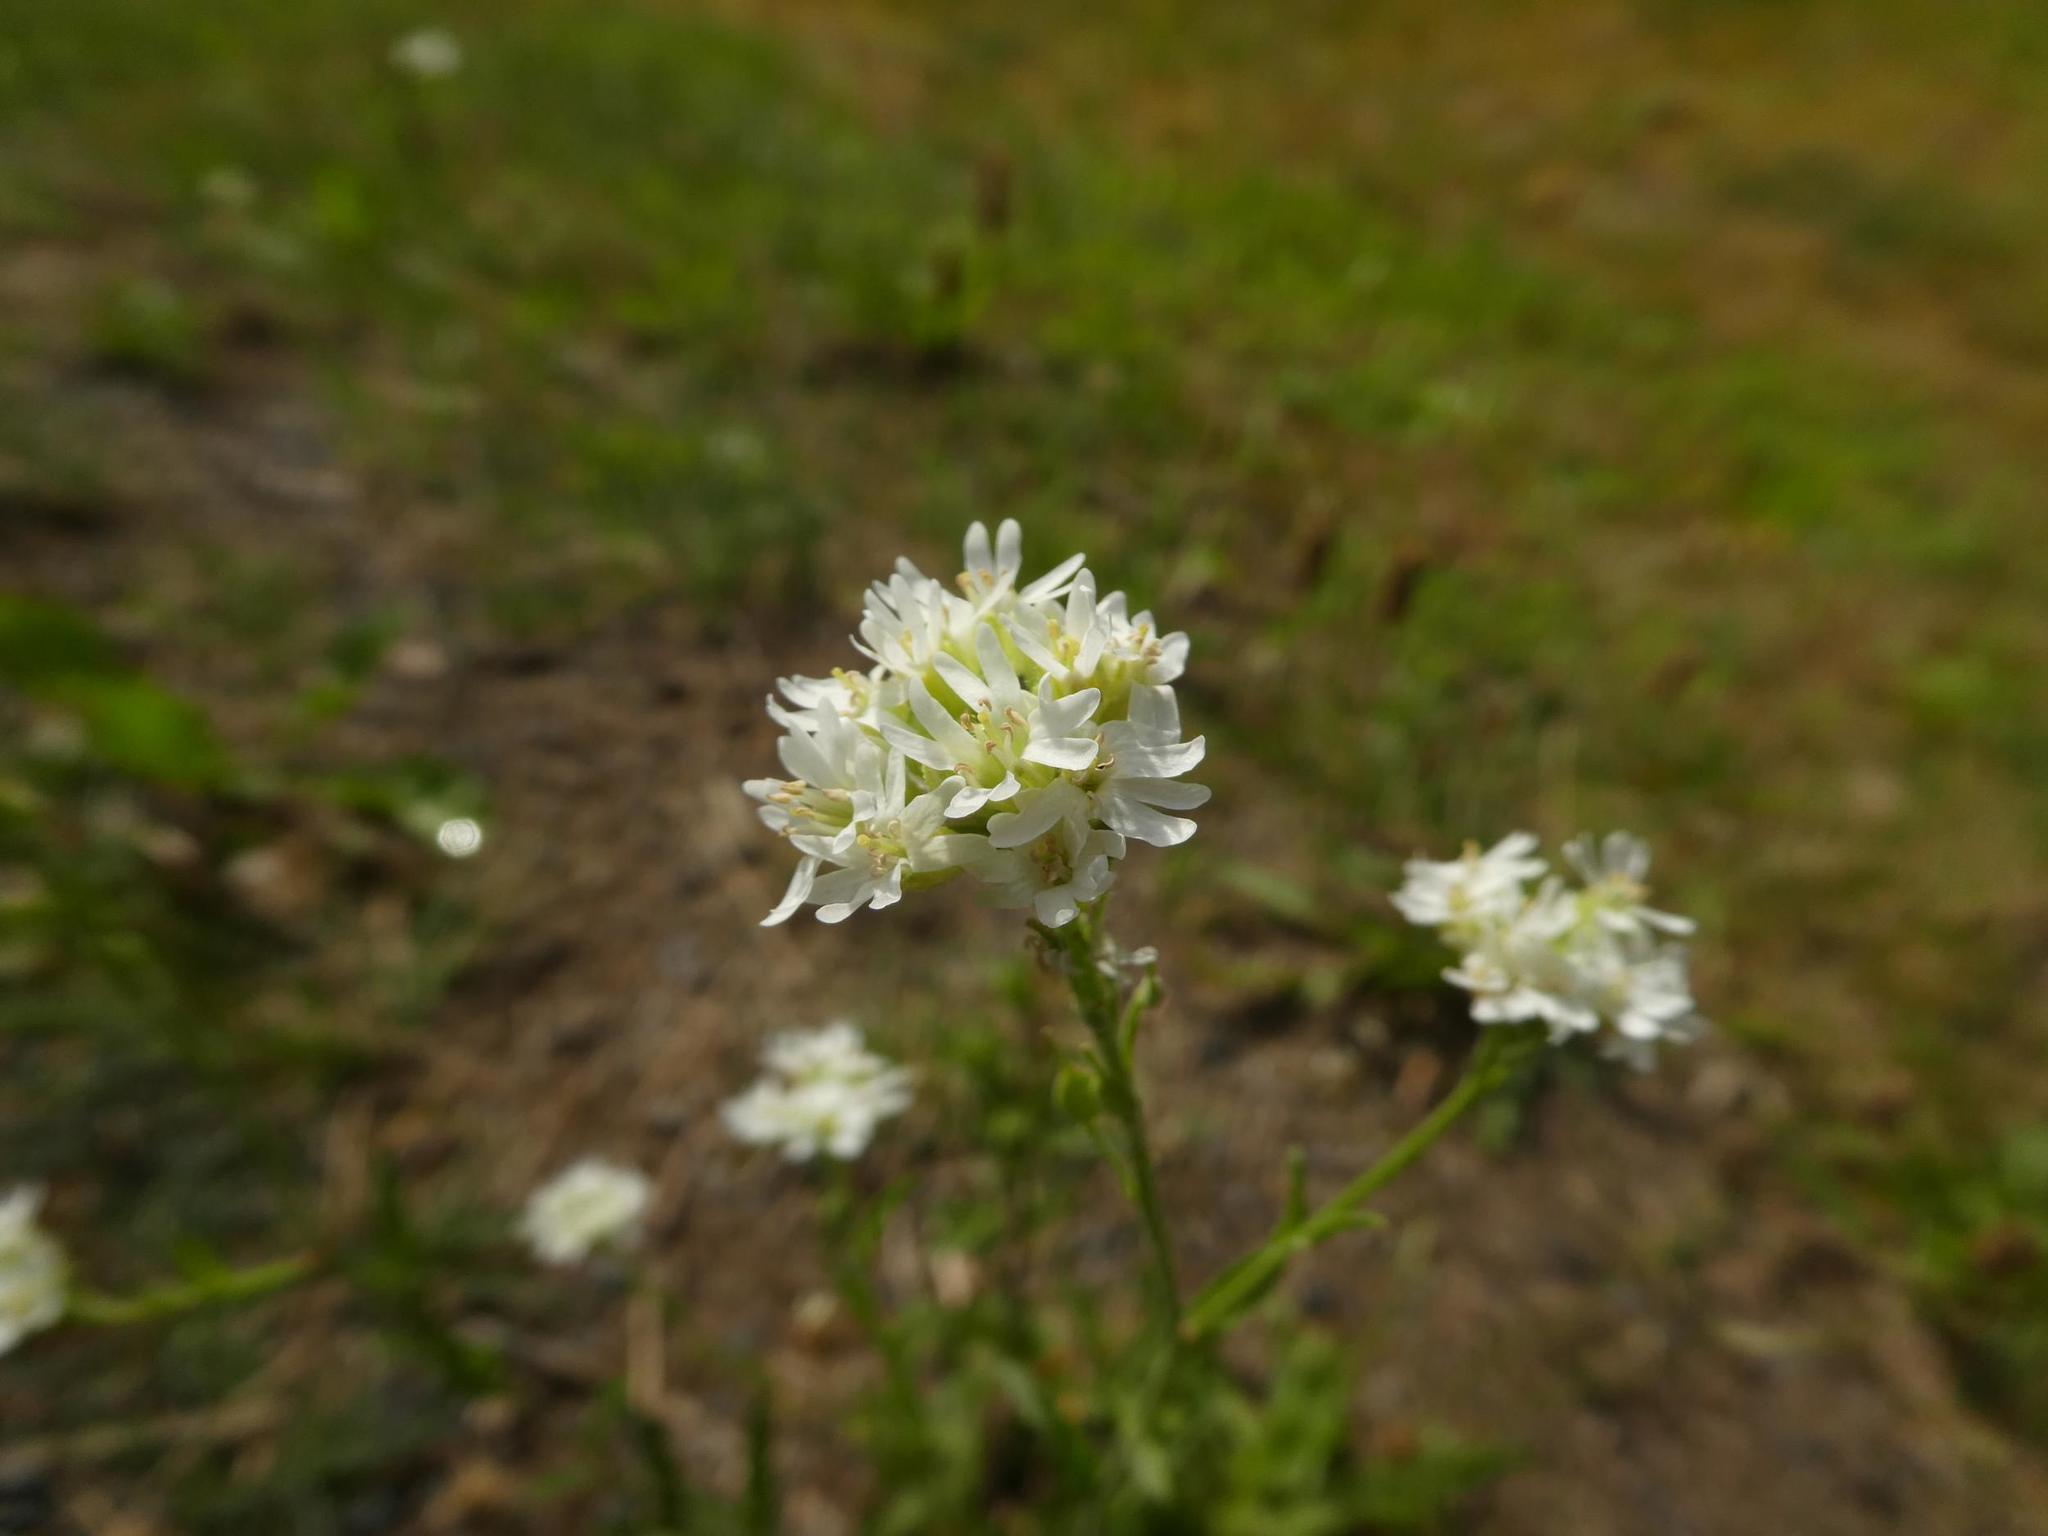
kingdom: Plantae
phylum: Tracheophyta
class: Magnoliopsida
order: Brassicales
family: Brassicaceae
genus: Berteroa
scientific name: Berteroa incana
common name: Hoary alison
